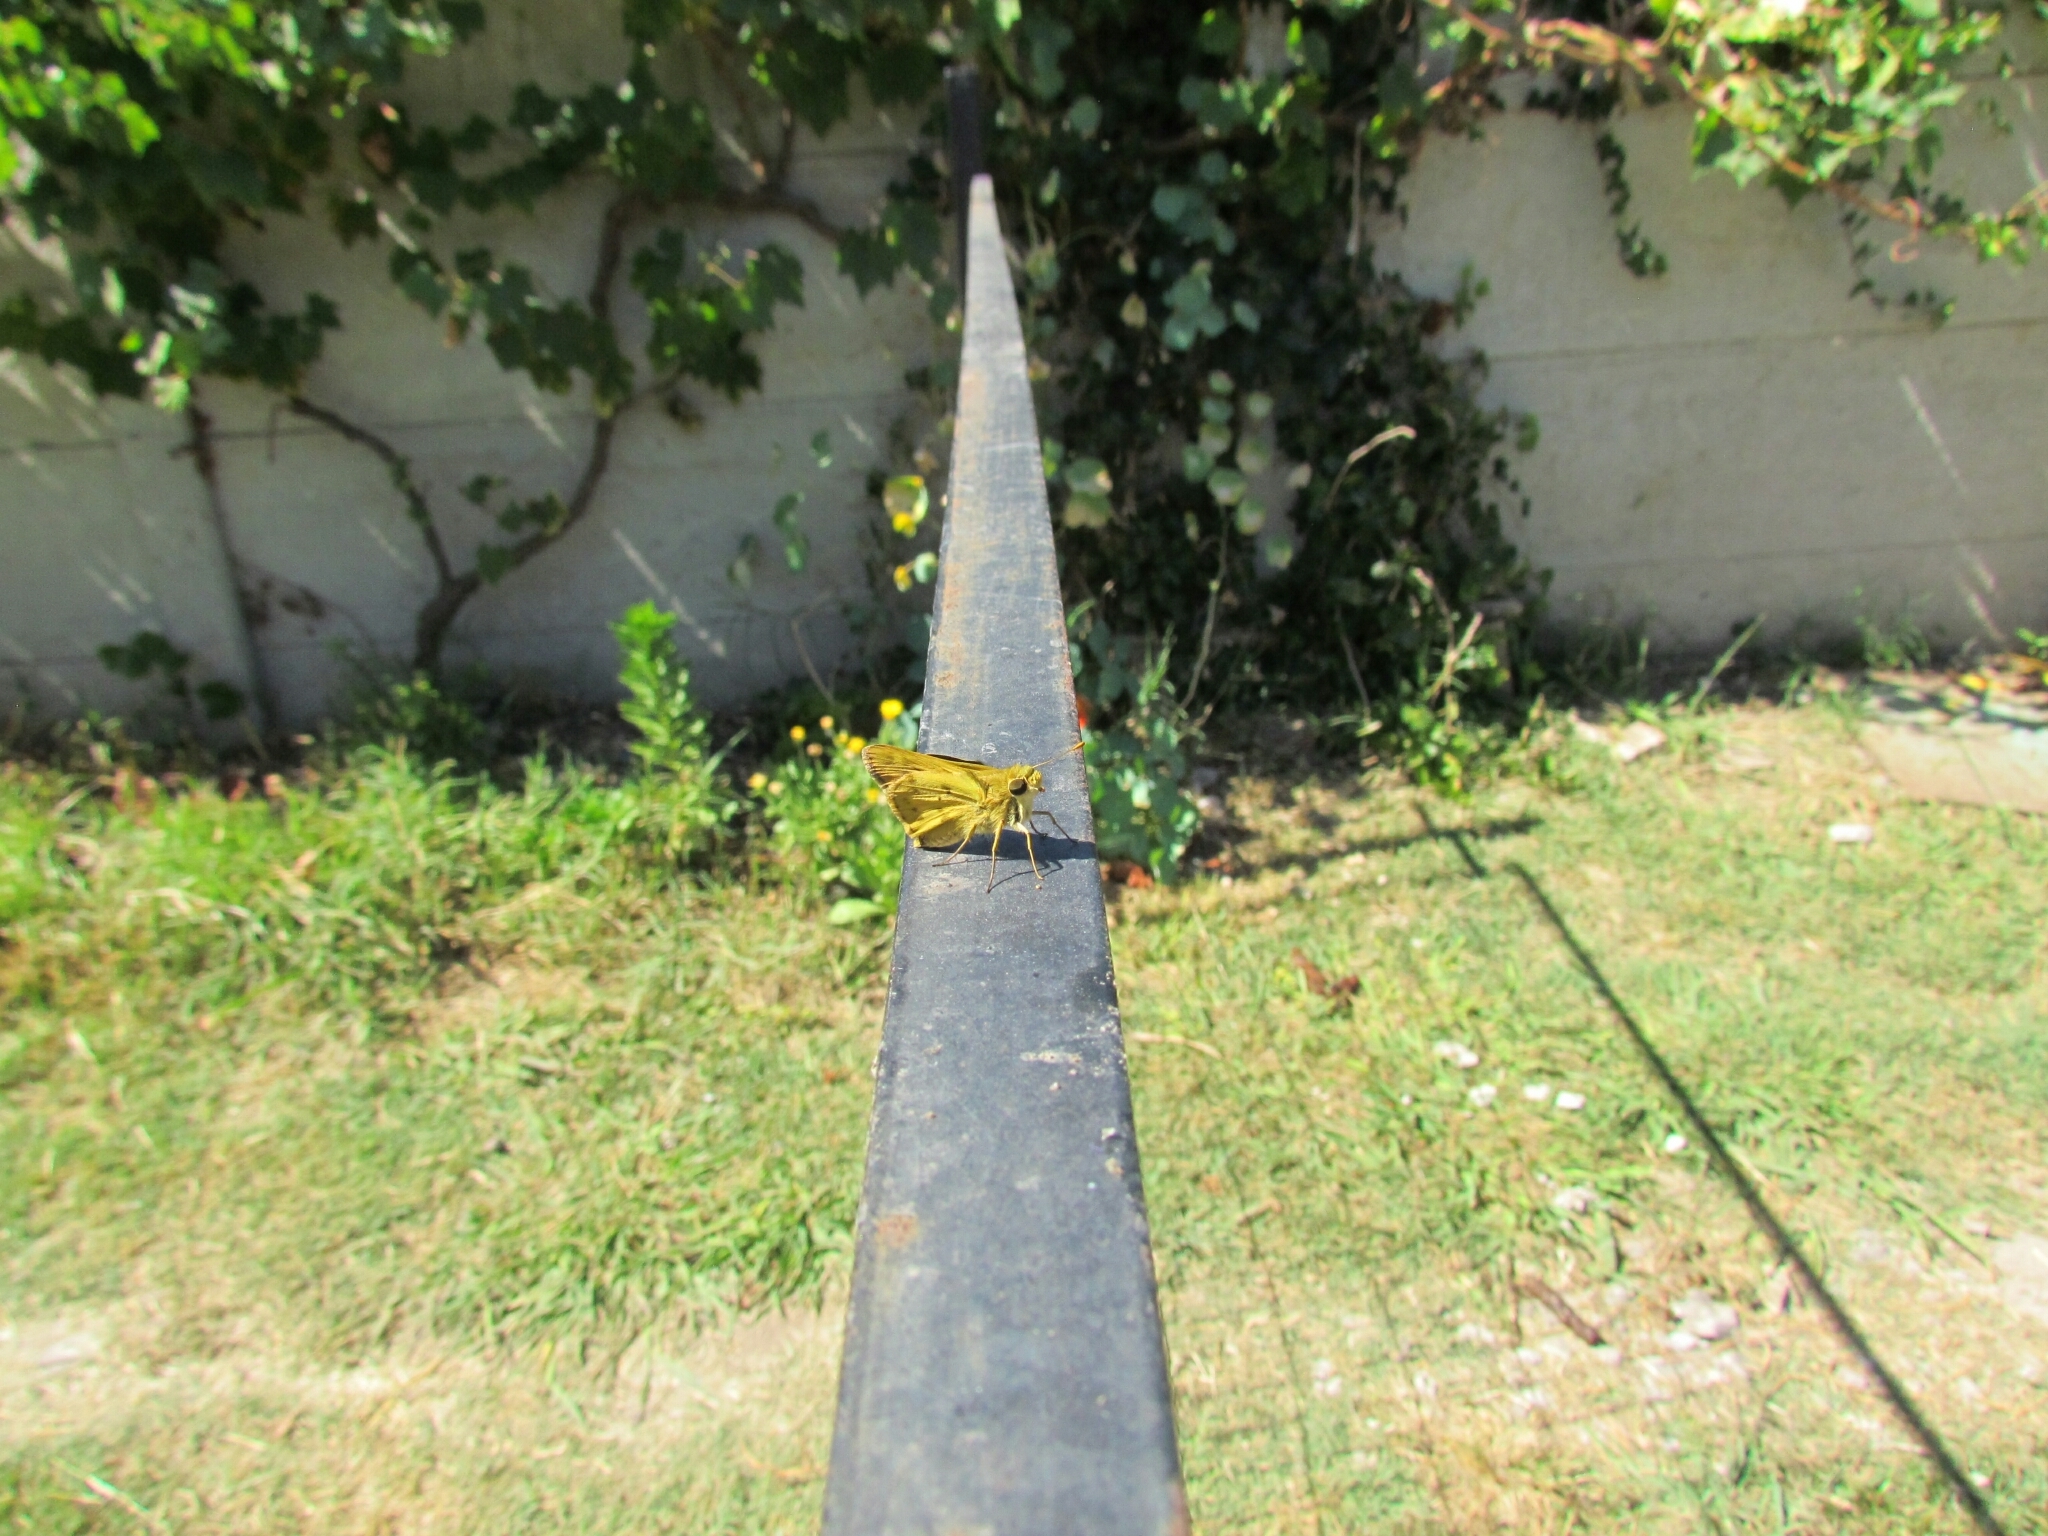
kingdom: Animalia
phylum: Arthropoda
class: Insecta
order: Lepidoptera
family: Hesperiidae
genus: Hylephila
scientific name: Hylephila phyleus
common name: Fiery skipper
